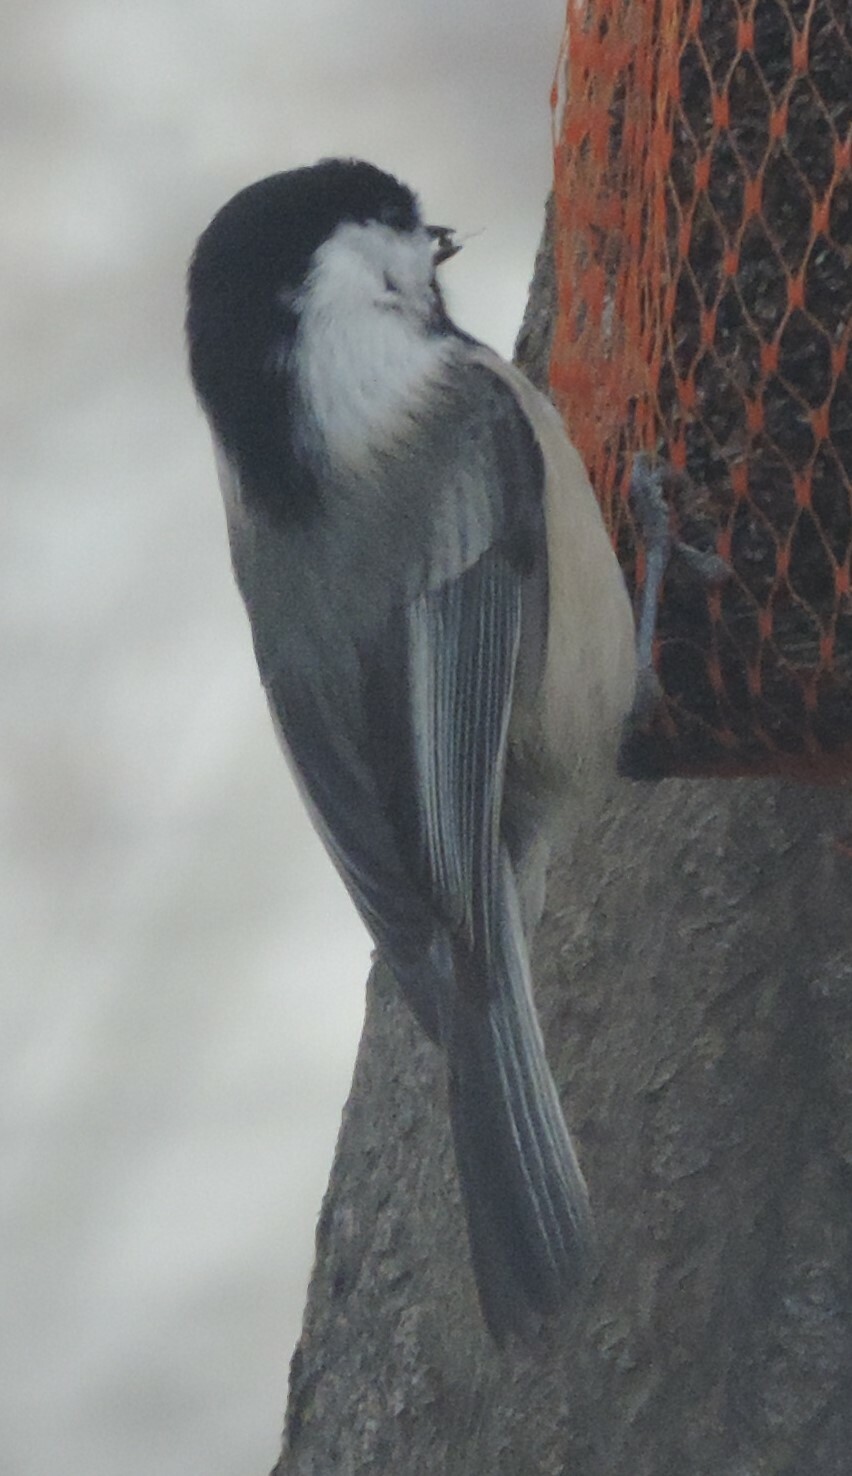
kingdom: Animalia
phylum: Chordata
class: Aves
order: Passeriformes
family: Paridae
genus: Poecile
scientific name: Poecile atricapillus
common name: Black-capped chickadee
